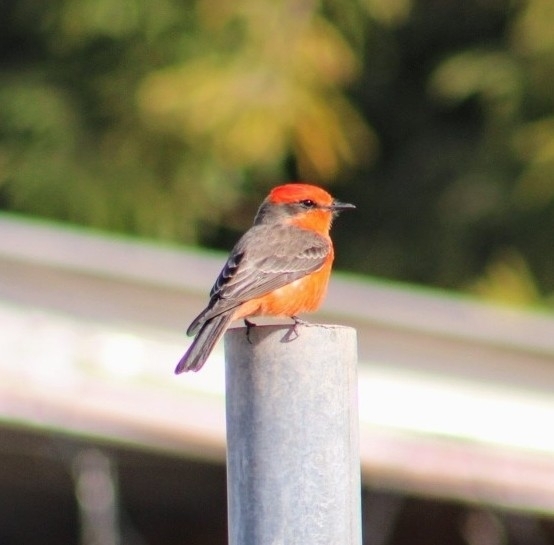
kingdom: Animalia
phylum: Chordata
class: Aves
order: Passeriformes
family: Tyrannidae
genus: Pyrocephalus
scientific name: Pyrocephalus rubinus
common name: Vermilion flycatcher
